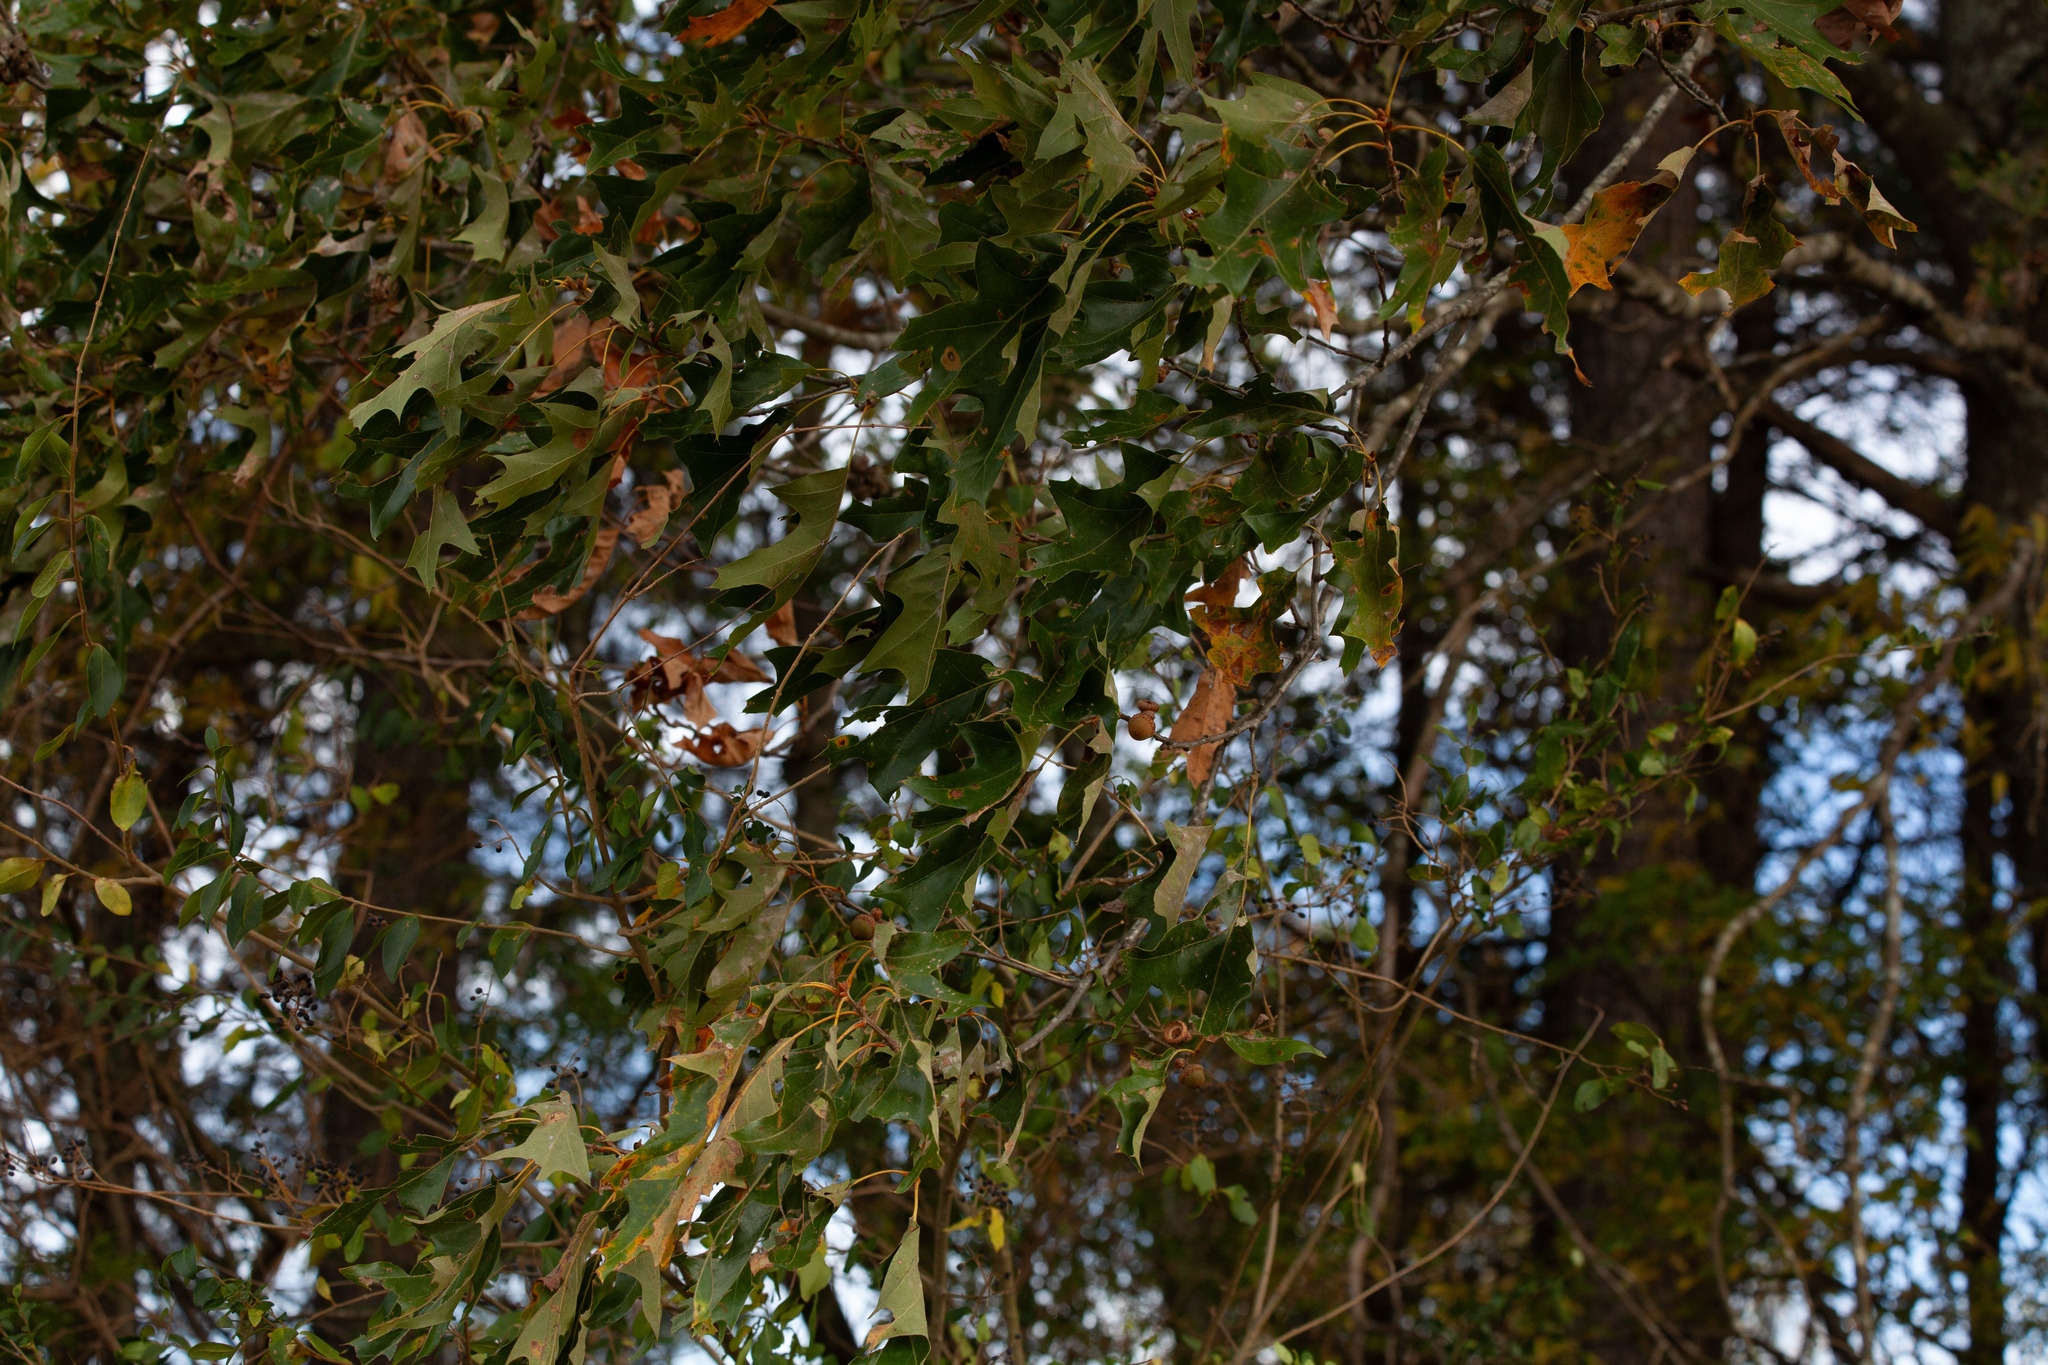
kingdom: Plantae
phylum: Tracheophyta
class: Magnoliopsida
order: Fagales
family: Fagaceae
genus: Quercus
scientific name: Quercus falcata
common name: Southern red oak
